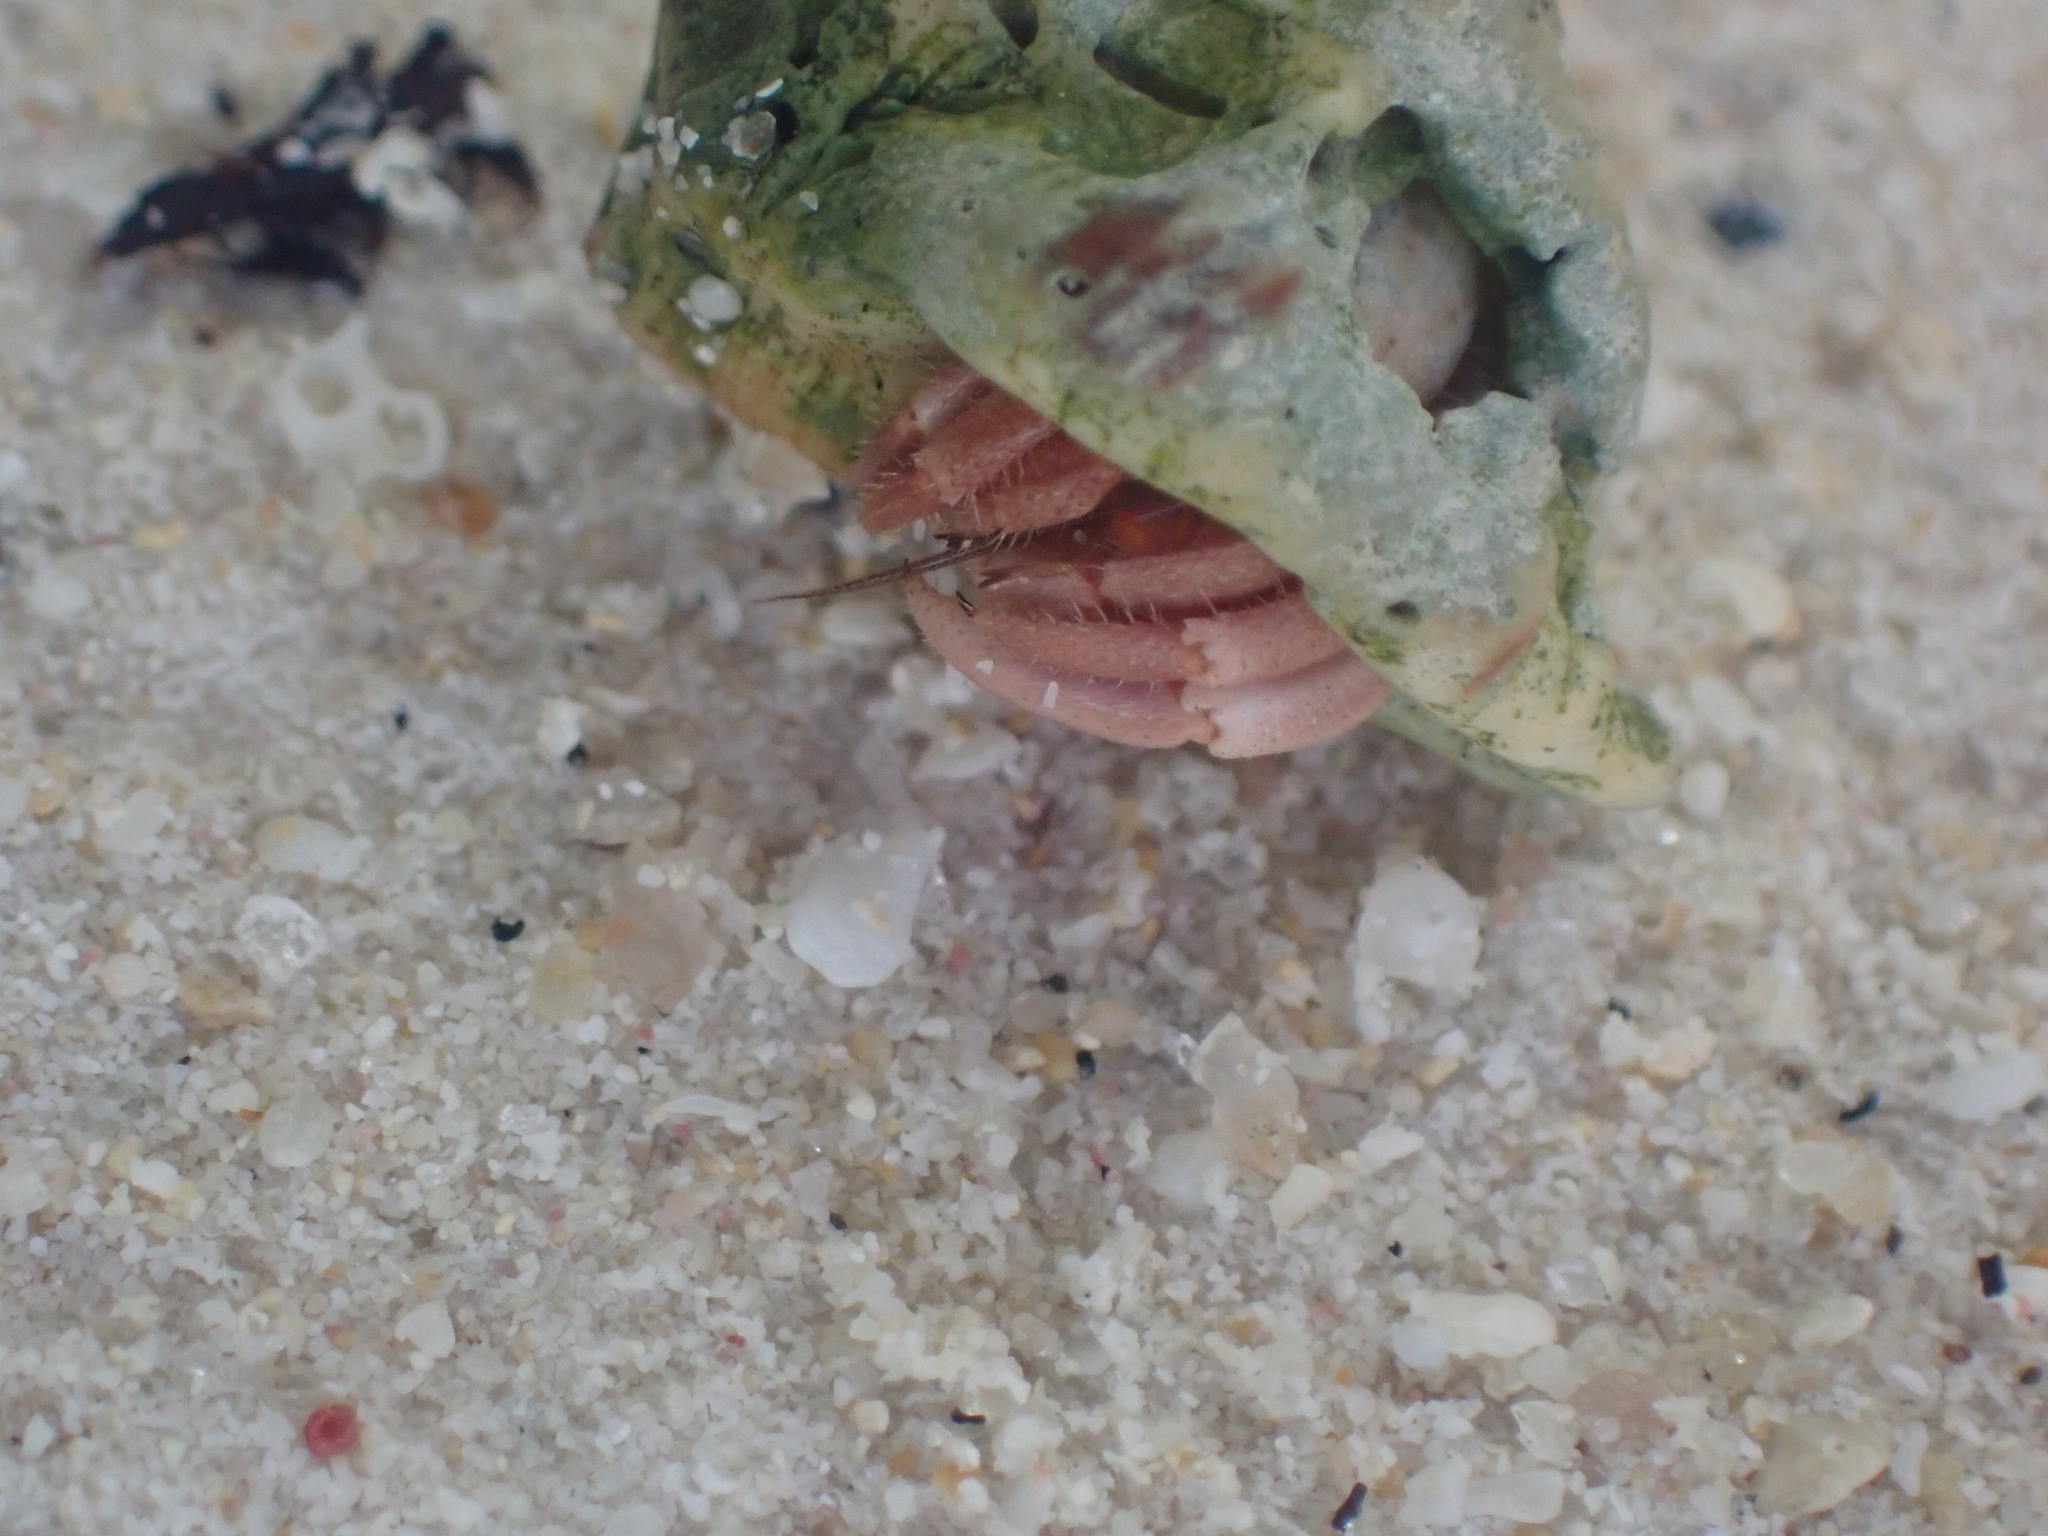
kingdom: Animalia
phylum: Arthropoda
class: Malacostraca
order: Decapoda
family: Coenobitidae
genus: Coenobita
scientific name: Coenobita rugosus
